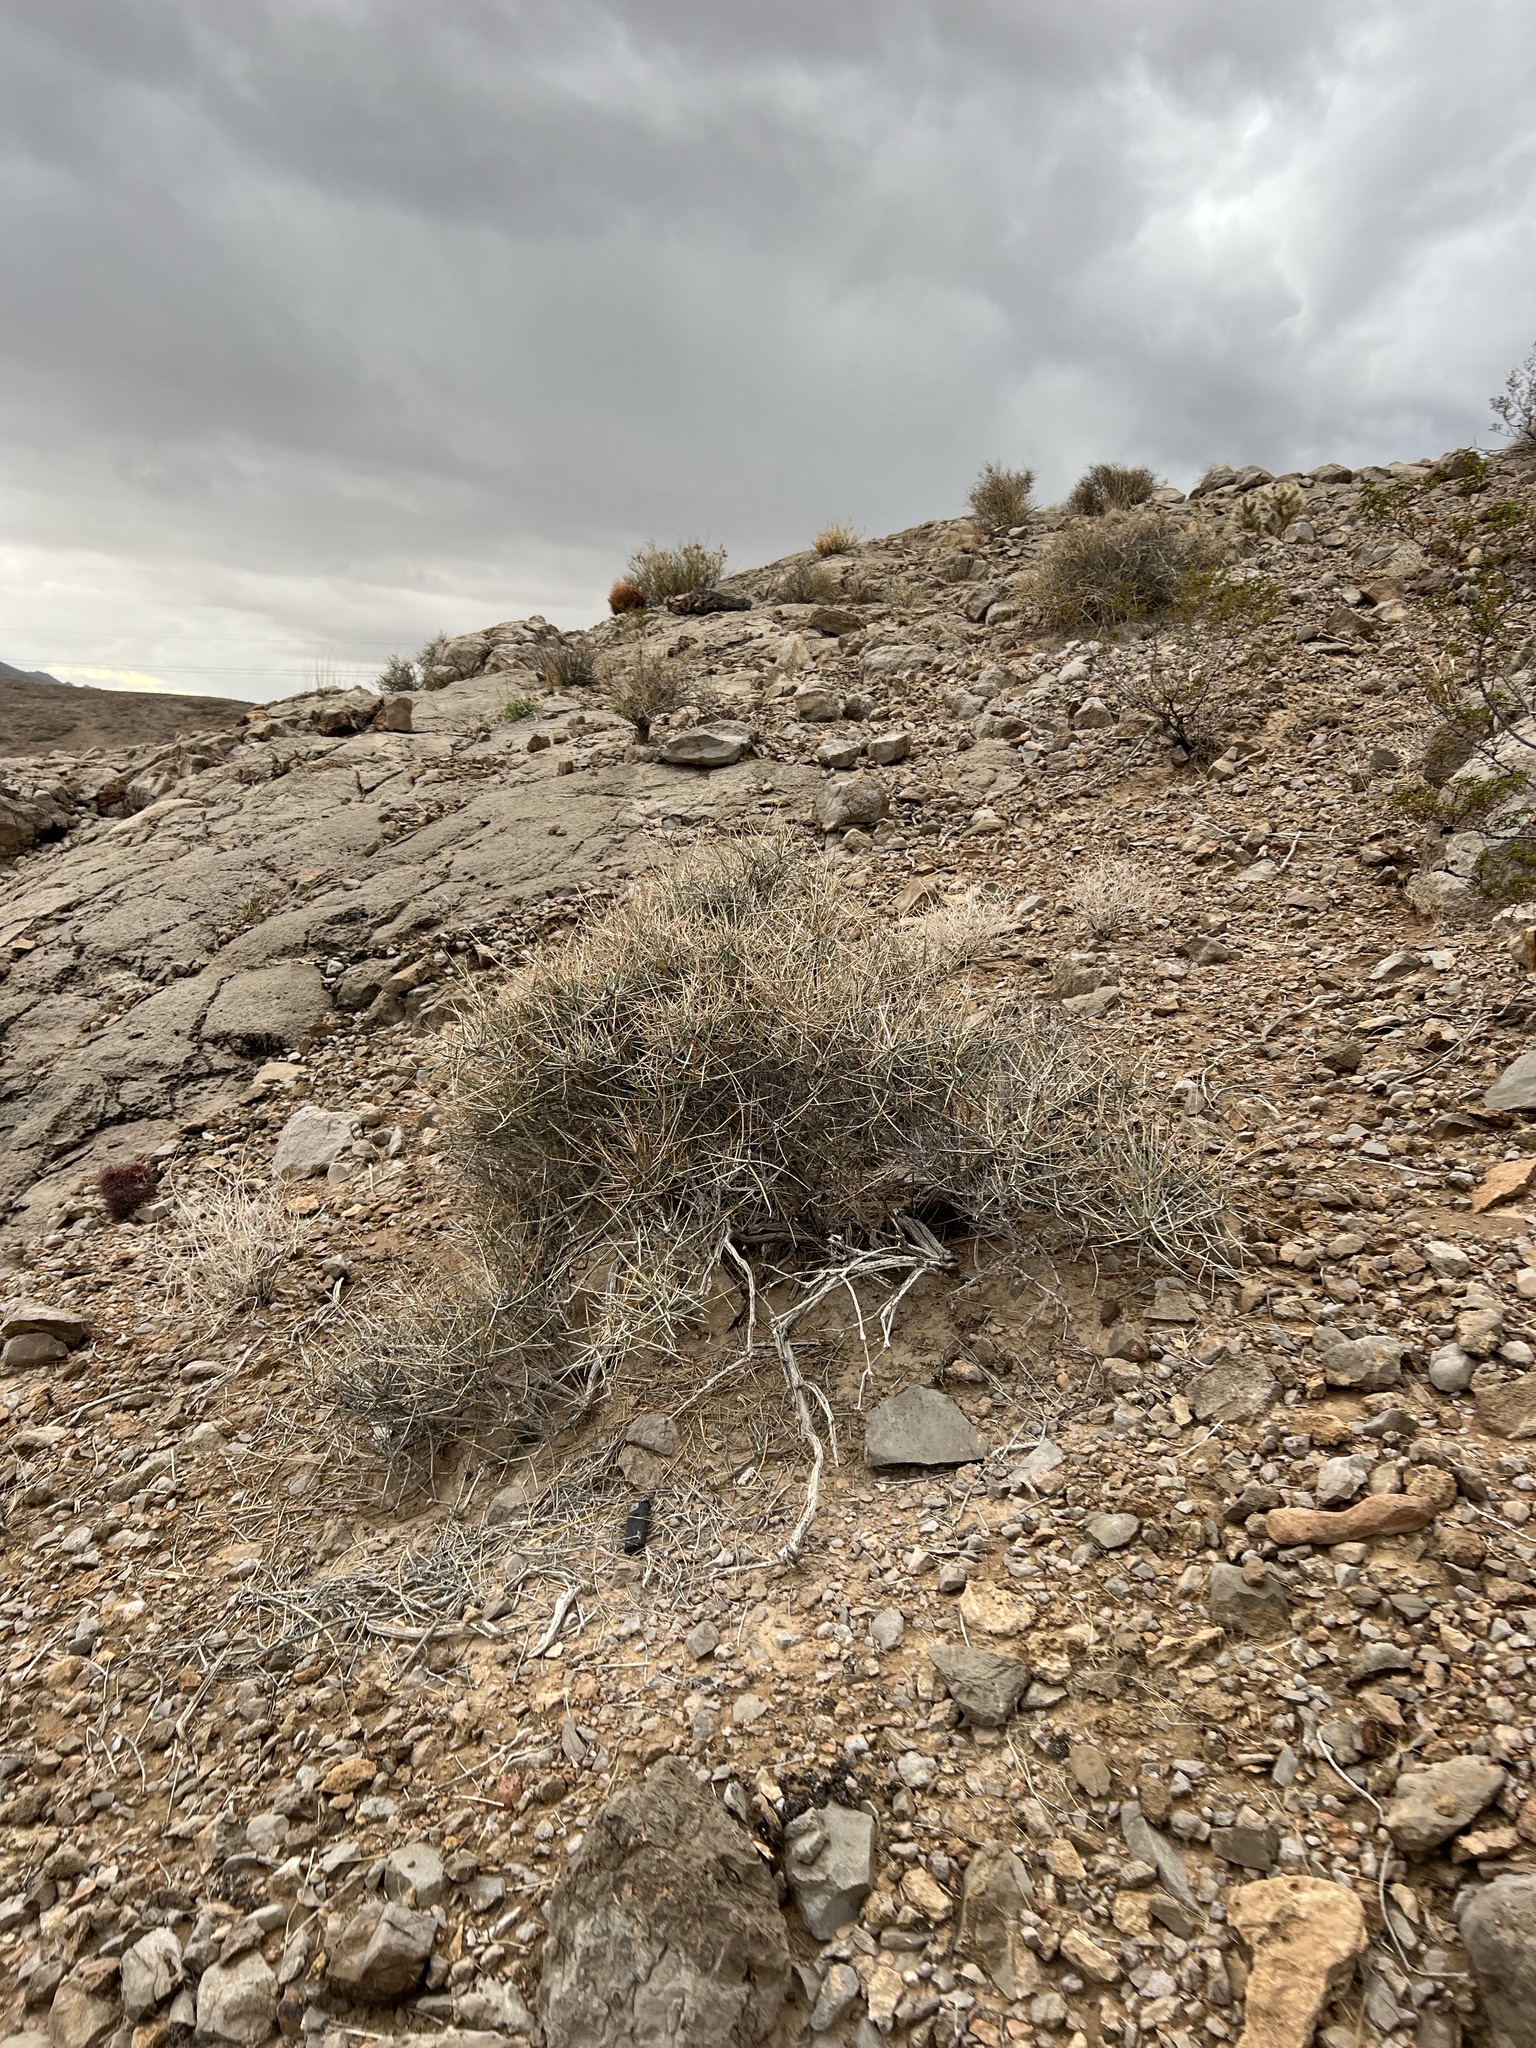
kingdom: Plantae
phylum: Tracheophyta
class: Gnetopsida
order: Ephedrales
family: Ephedraceae
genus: Ephedra
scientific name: Ephedra nevadensis
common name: Gray ephedra
